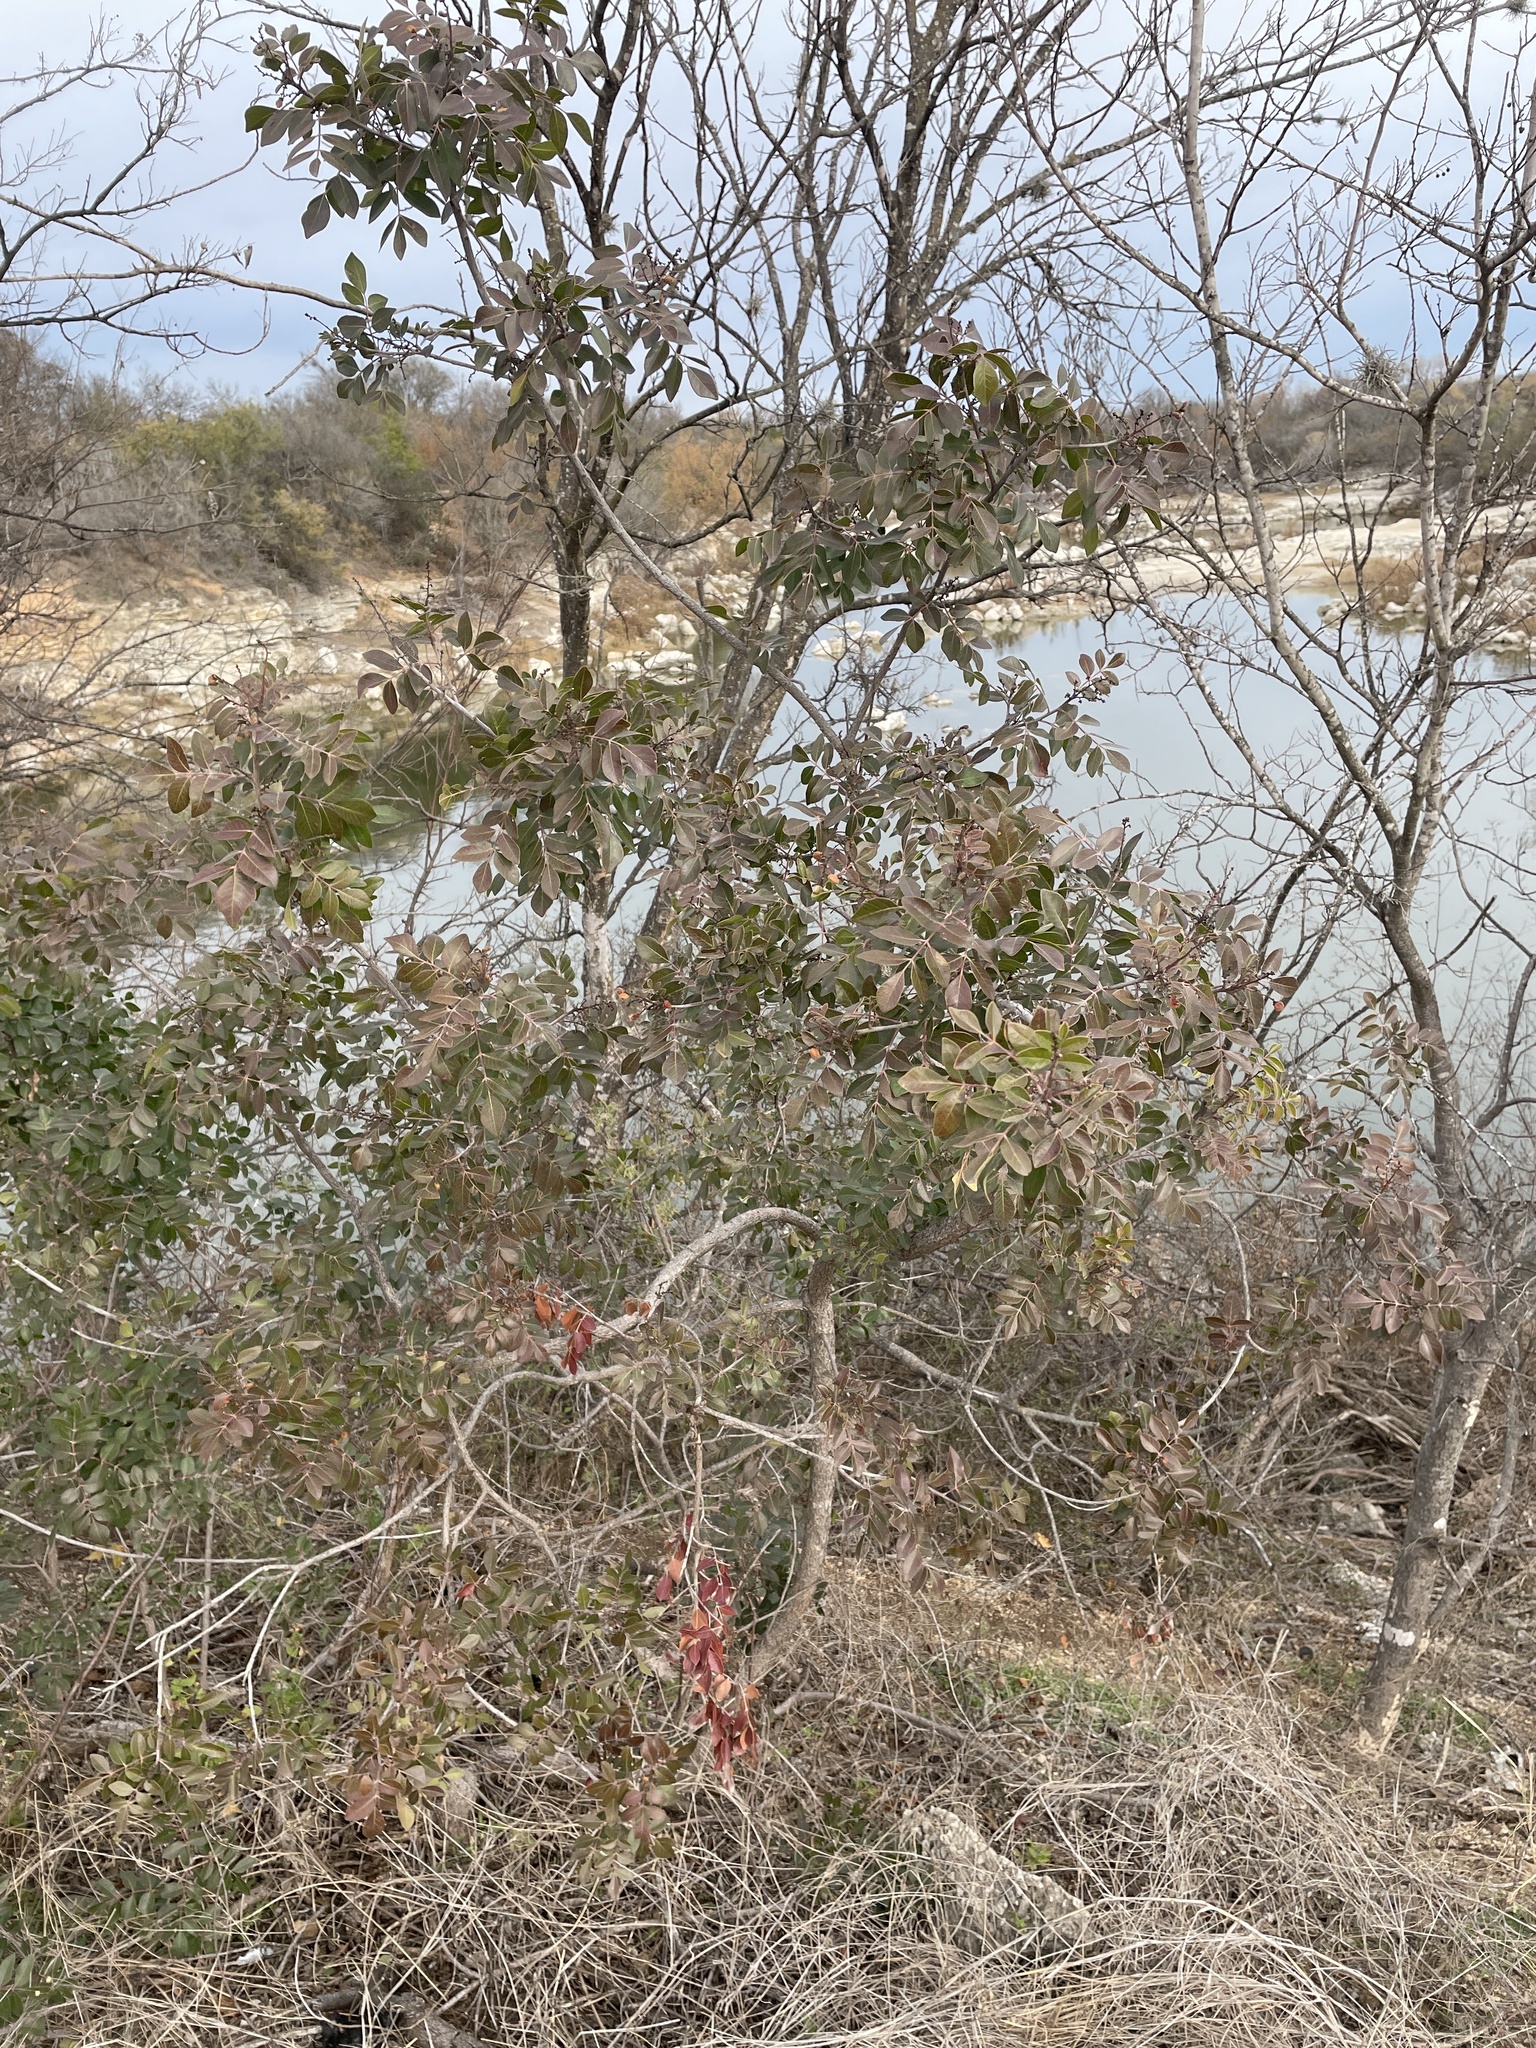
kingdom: Plantae
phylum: Tracheophyta
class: Magnoliopsida
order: Sapindales
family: Anacardiaceae
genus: Rhus
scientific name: Rhus virens
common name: Evergreen sumac
